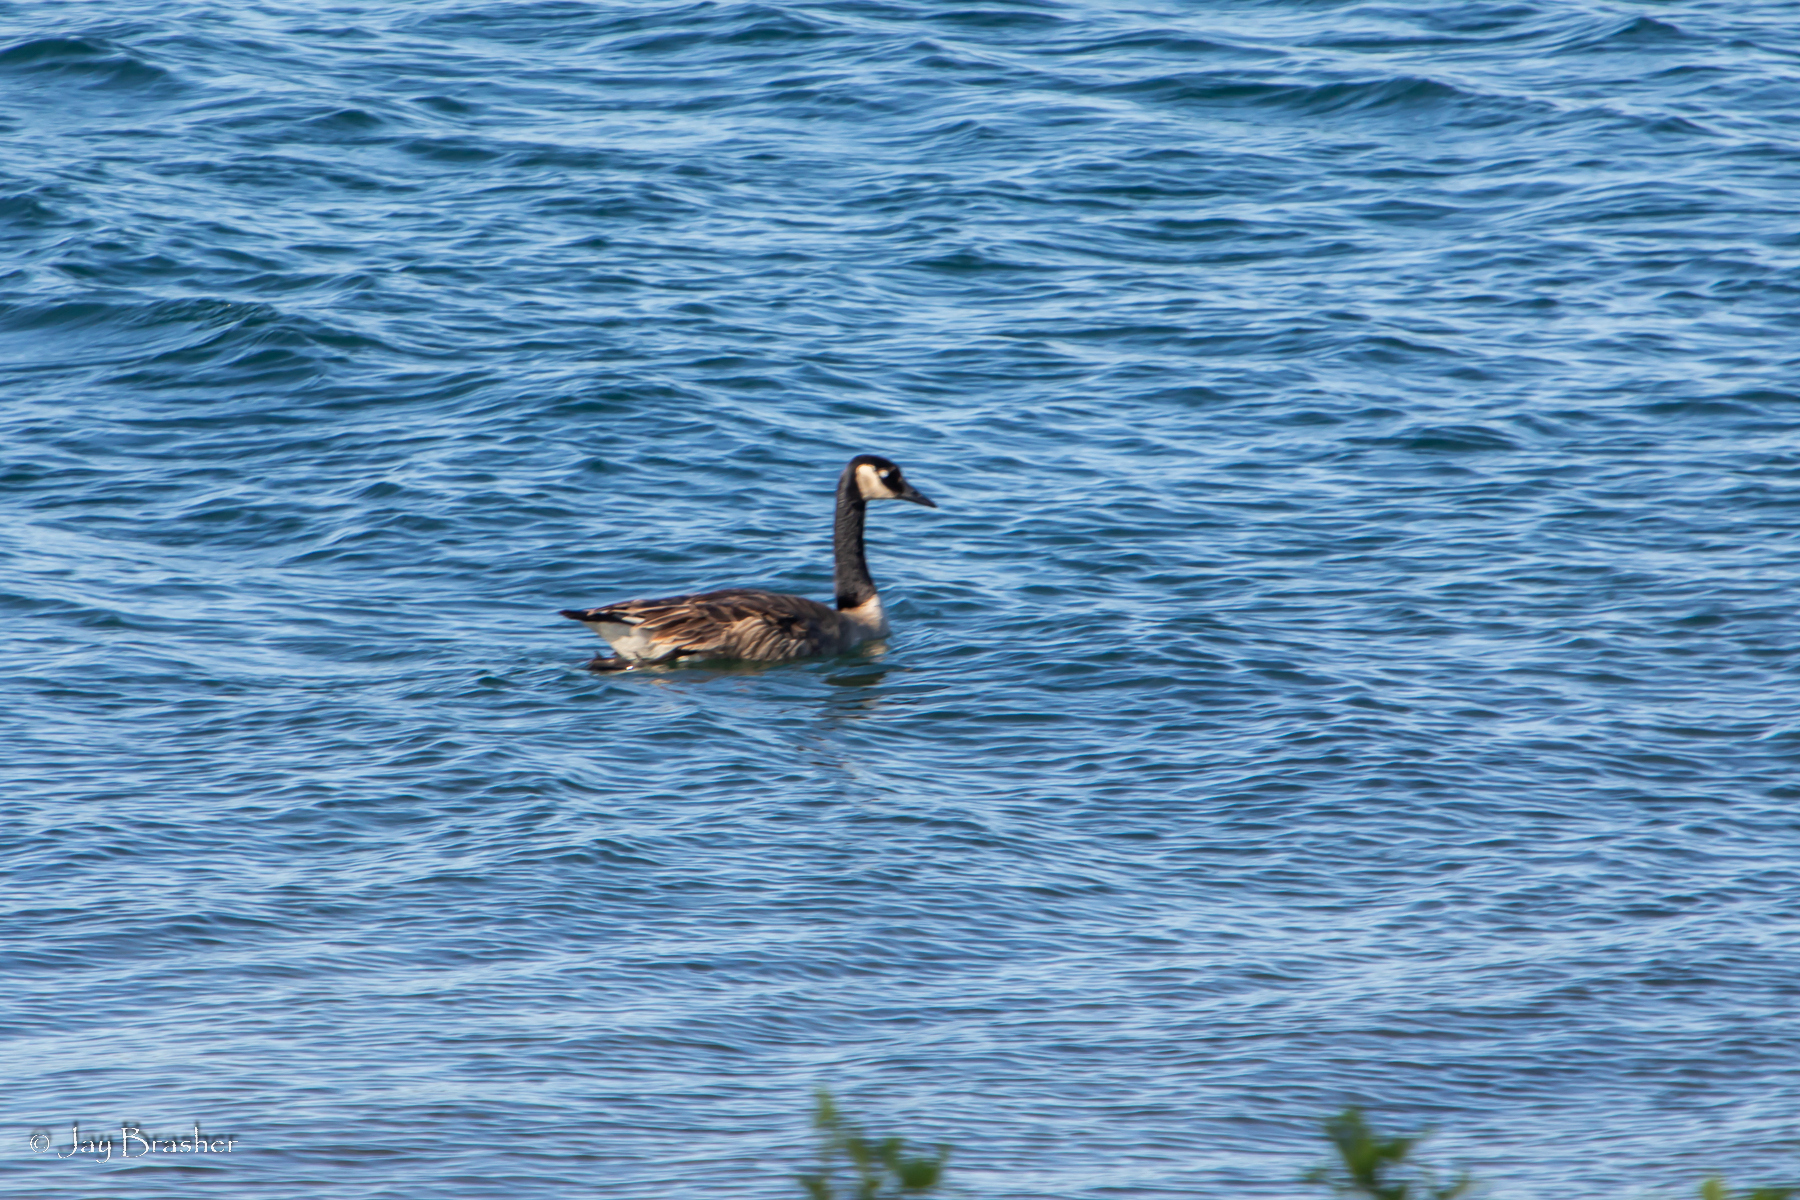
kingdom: Animalia
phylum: Chordata
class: Aves
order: Anseriformes
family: Anatidae
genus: Branta
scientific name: Branta canadensis
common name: Canada goose
